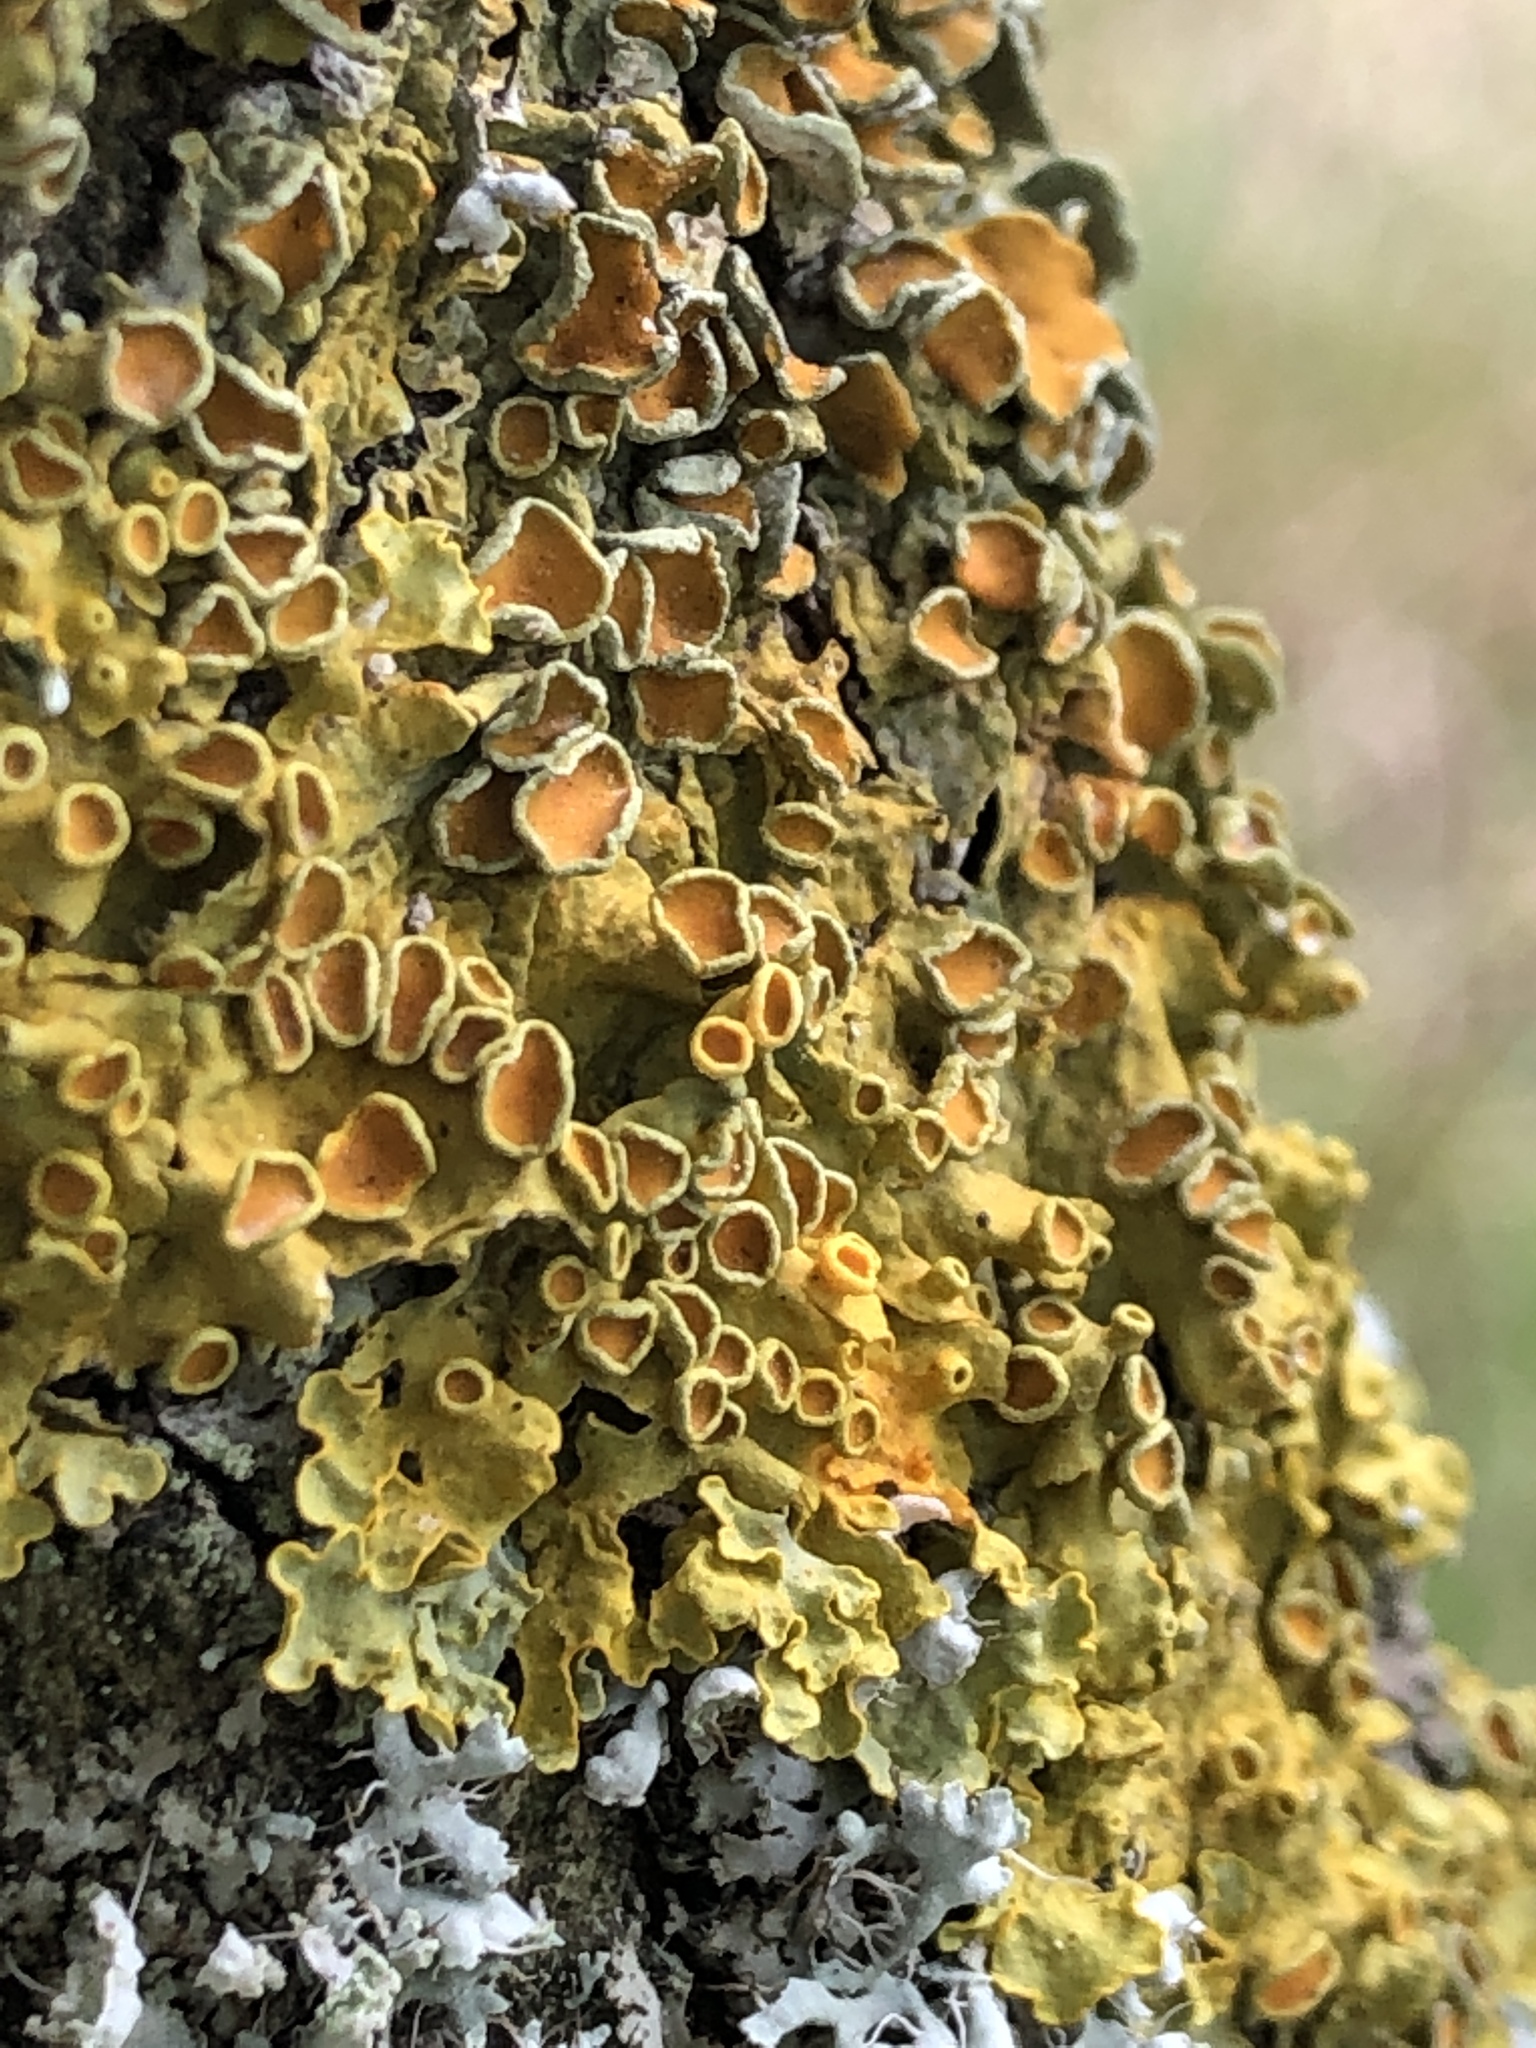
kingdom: Fungi
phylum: Ascomycota
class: Lecanoromycetes
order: Teloschistales
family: Teloschistaceae
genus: Xanthoria
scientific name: Xanthoria parietina
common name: Common orange lichen
